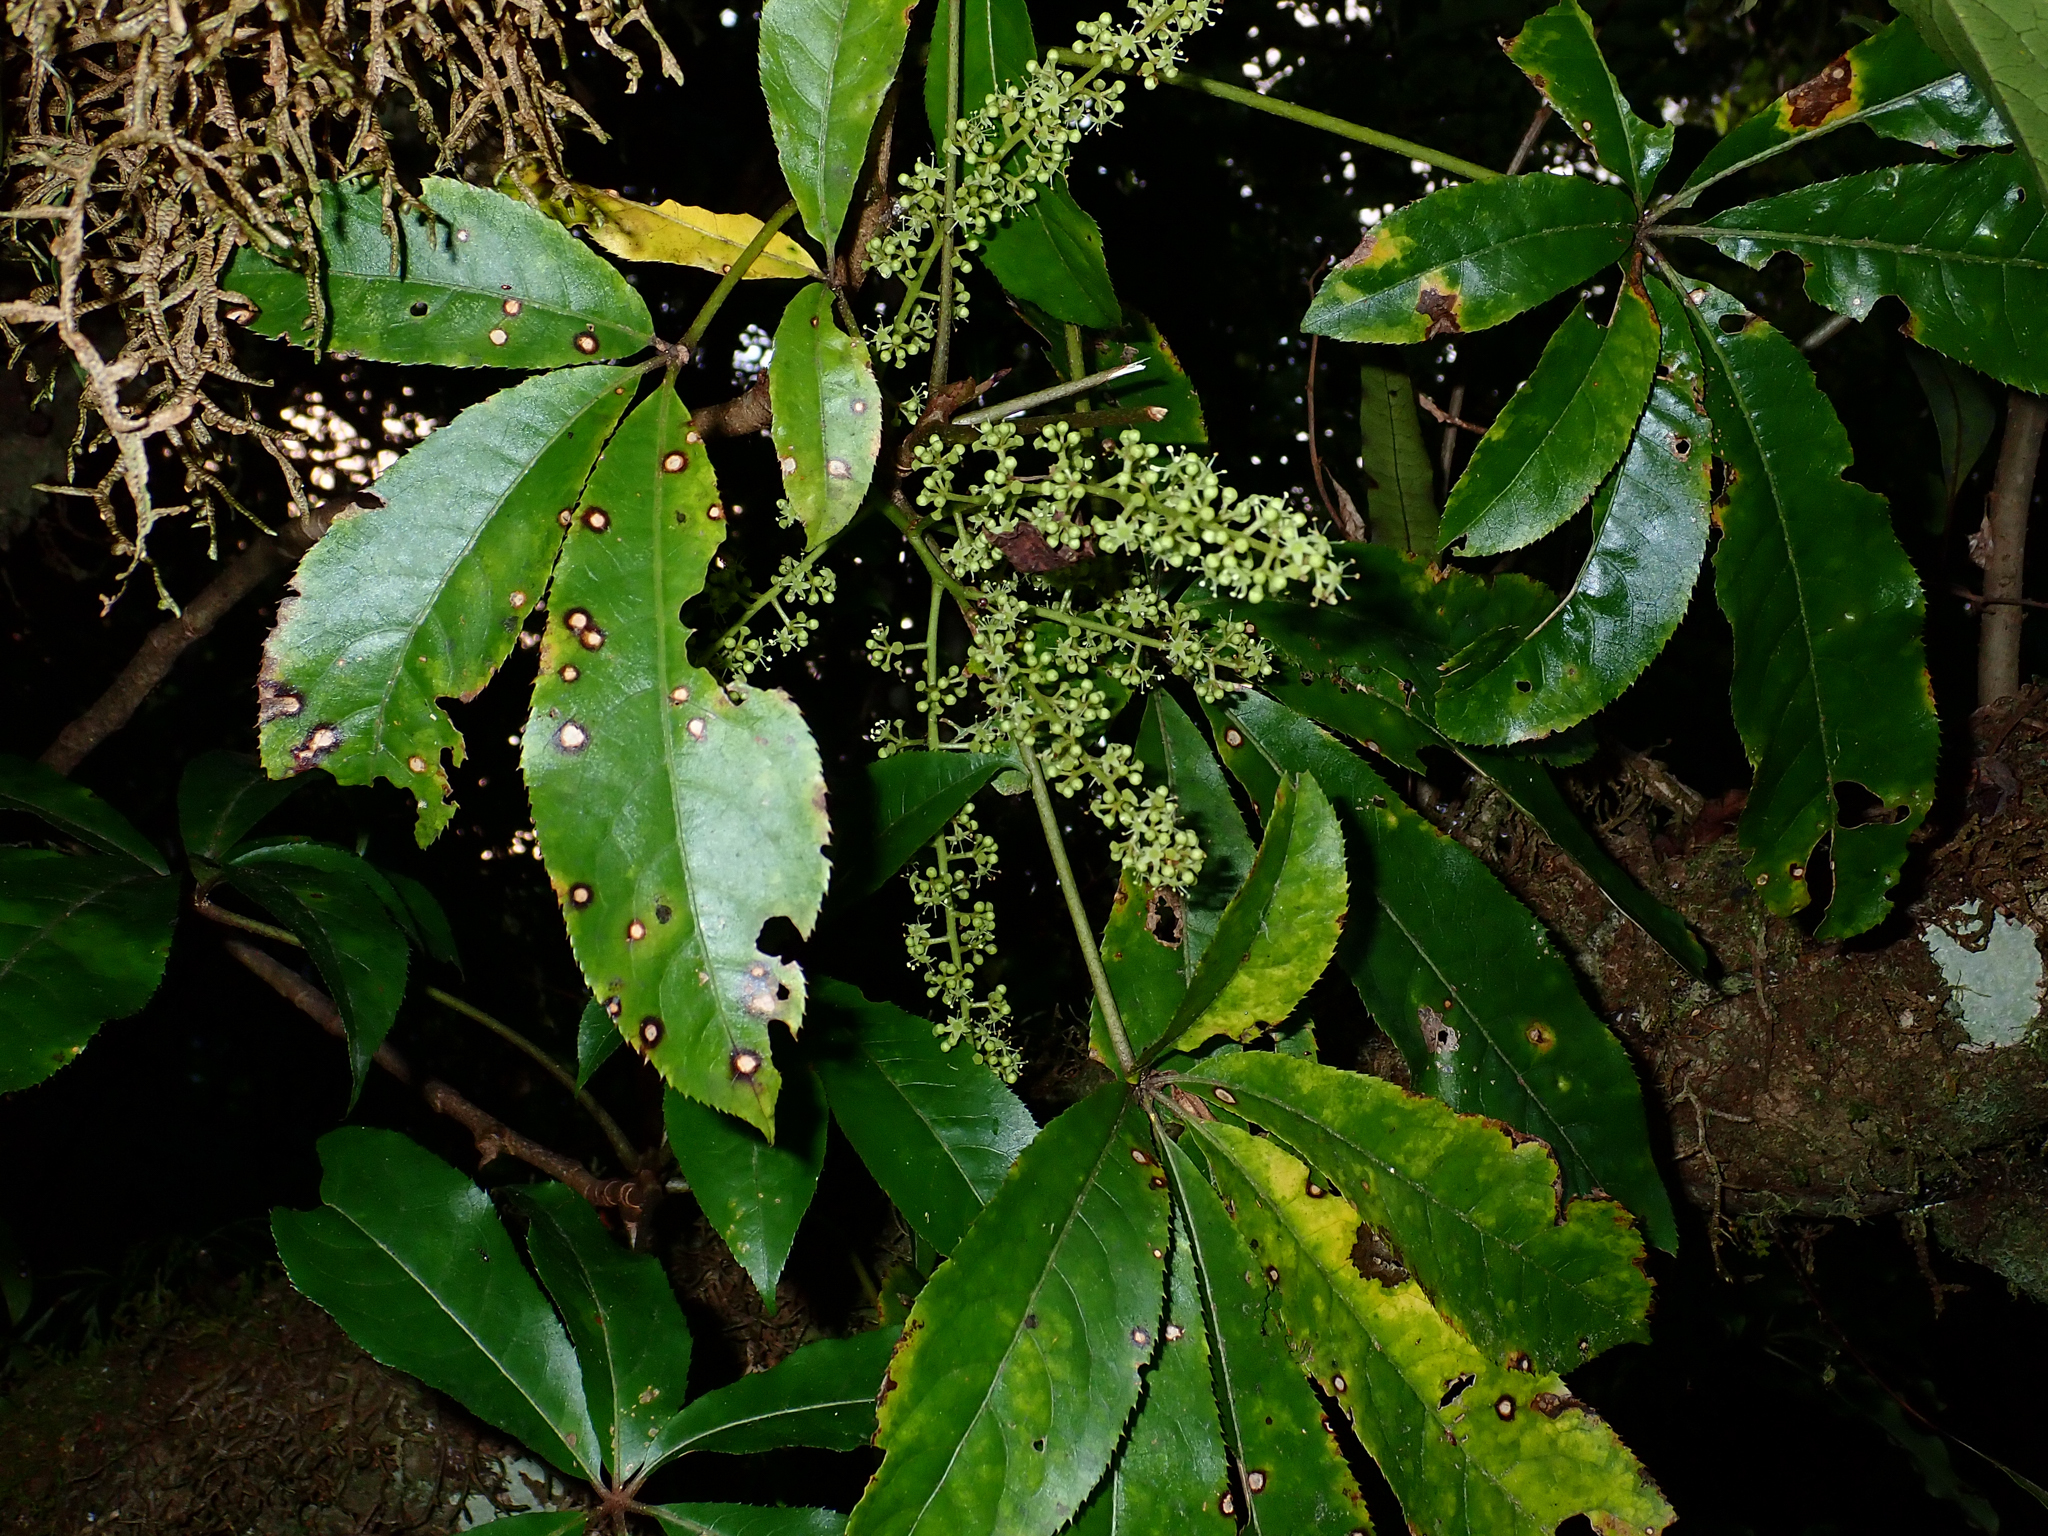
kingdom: Plantae
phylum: Tracheophyta
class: Magnoliopsida
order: Apiales
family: Araliaceae
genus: Schefflera
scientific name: Schefflera digitata
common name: Pate
